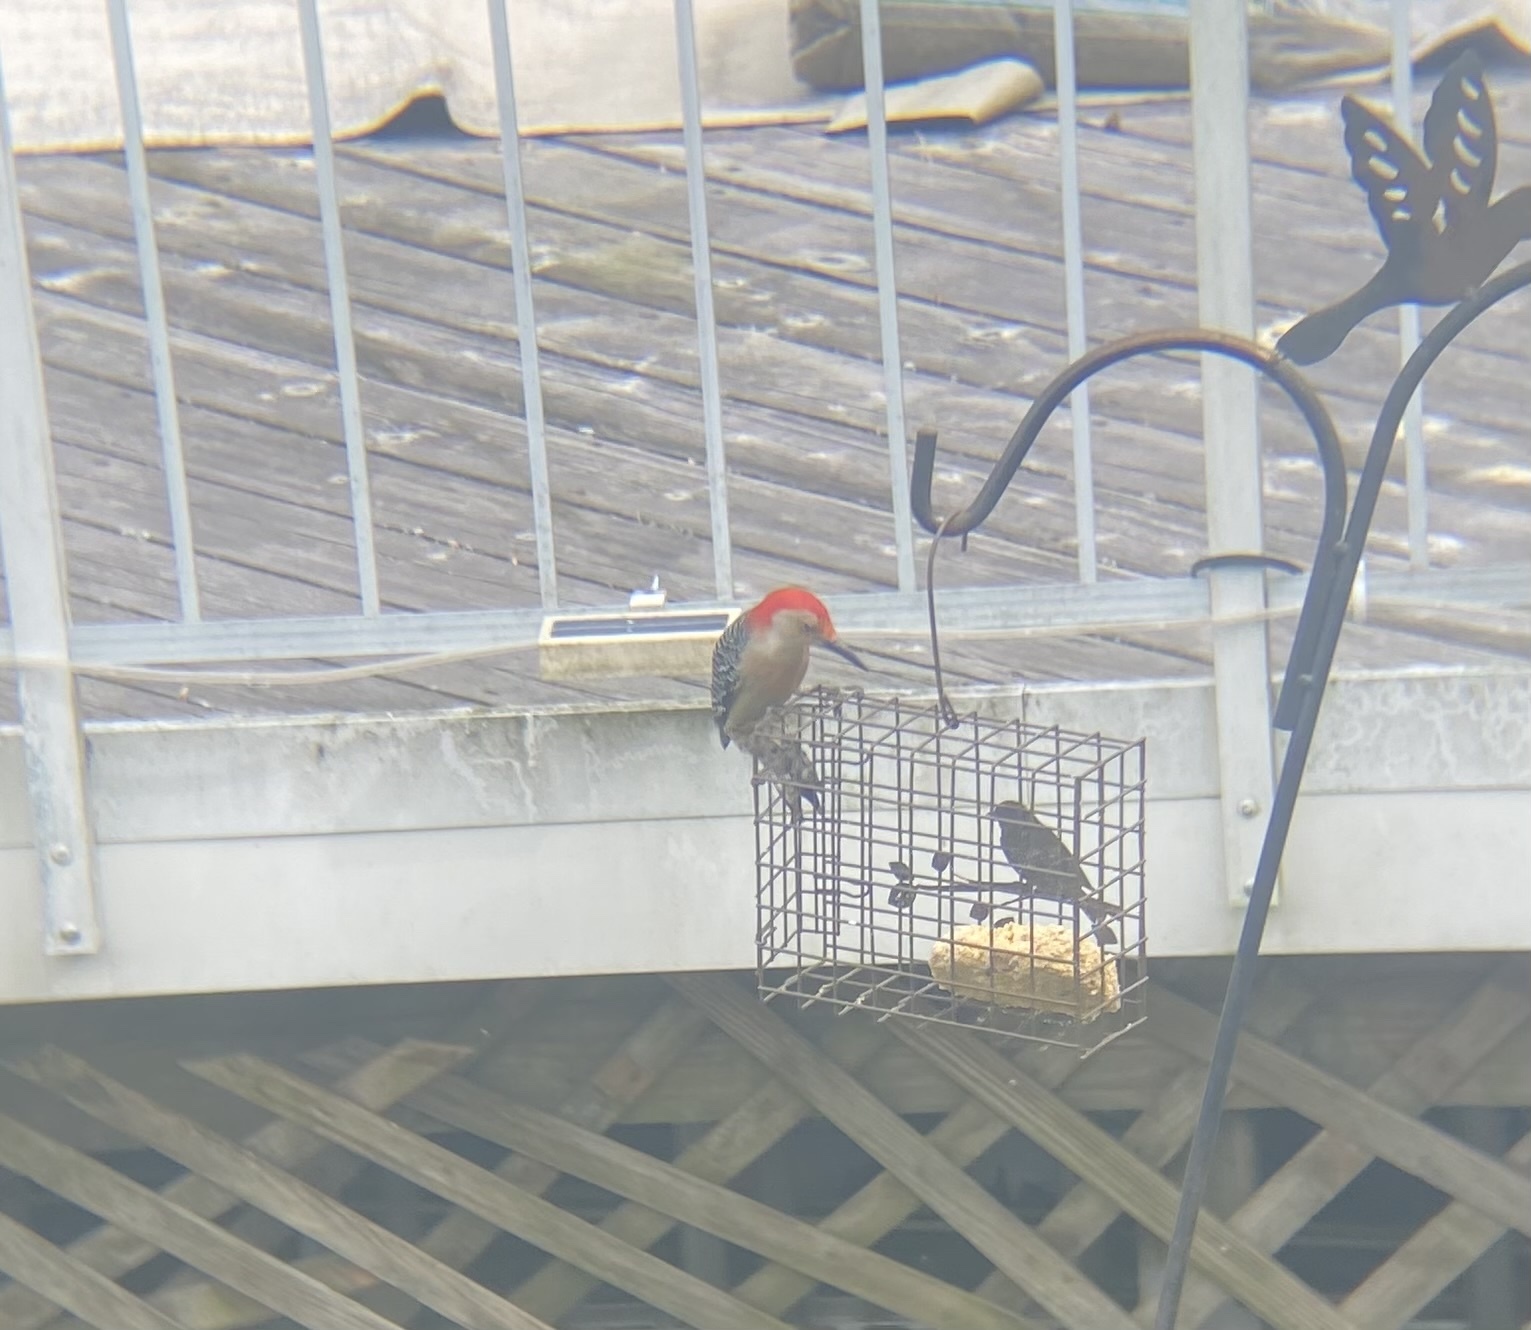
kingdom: Animalia
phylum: Chordata
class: Aves
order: Piciformes
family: Picidae
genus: Melanerpes
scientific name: Melanerpes carolinus
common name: Red-bellied woodpecker
